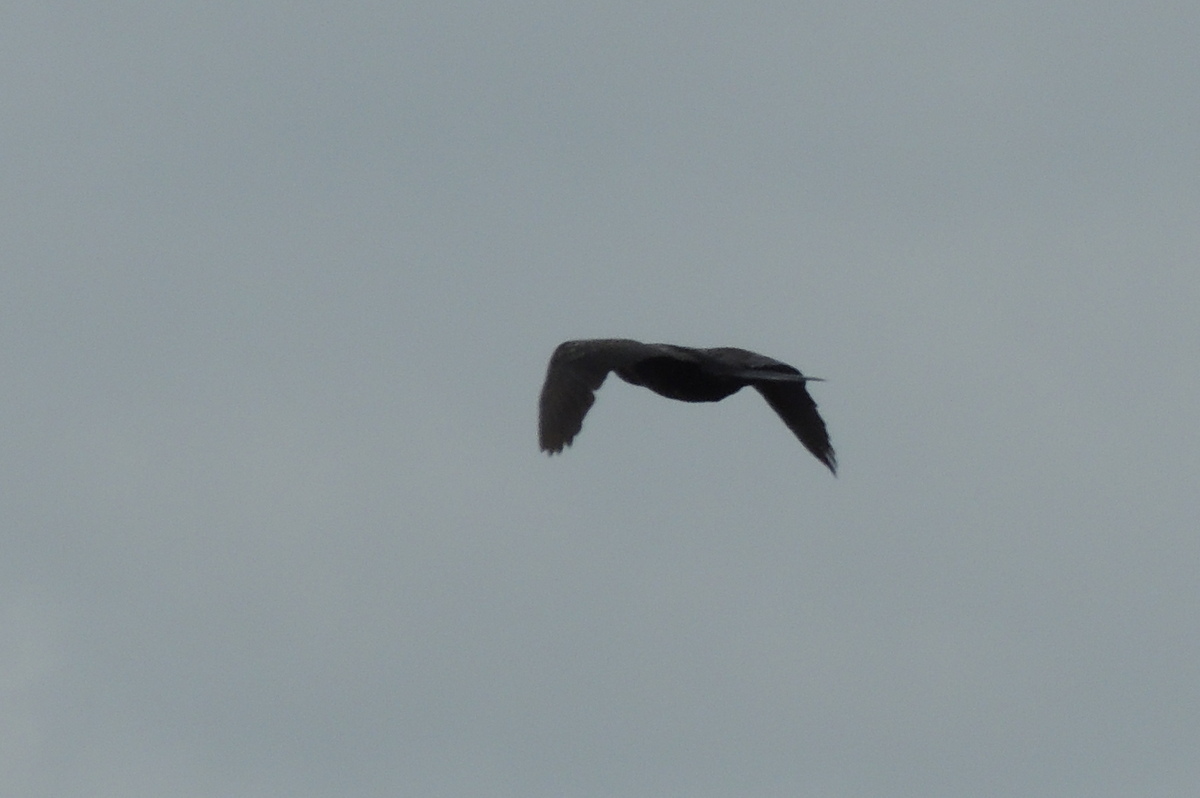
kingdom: Animalia
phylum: Chordata
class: Aves
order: Suliformes
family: Phalacrocoracidae
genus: Microcarbo
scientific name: Microcarbo africanus
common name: Long-tailed cormorant
